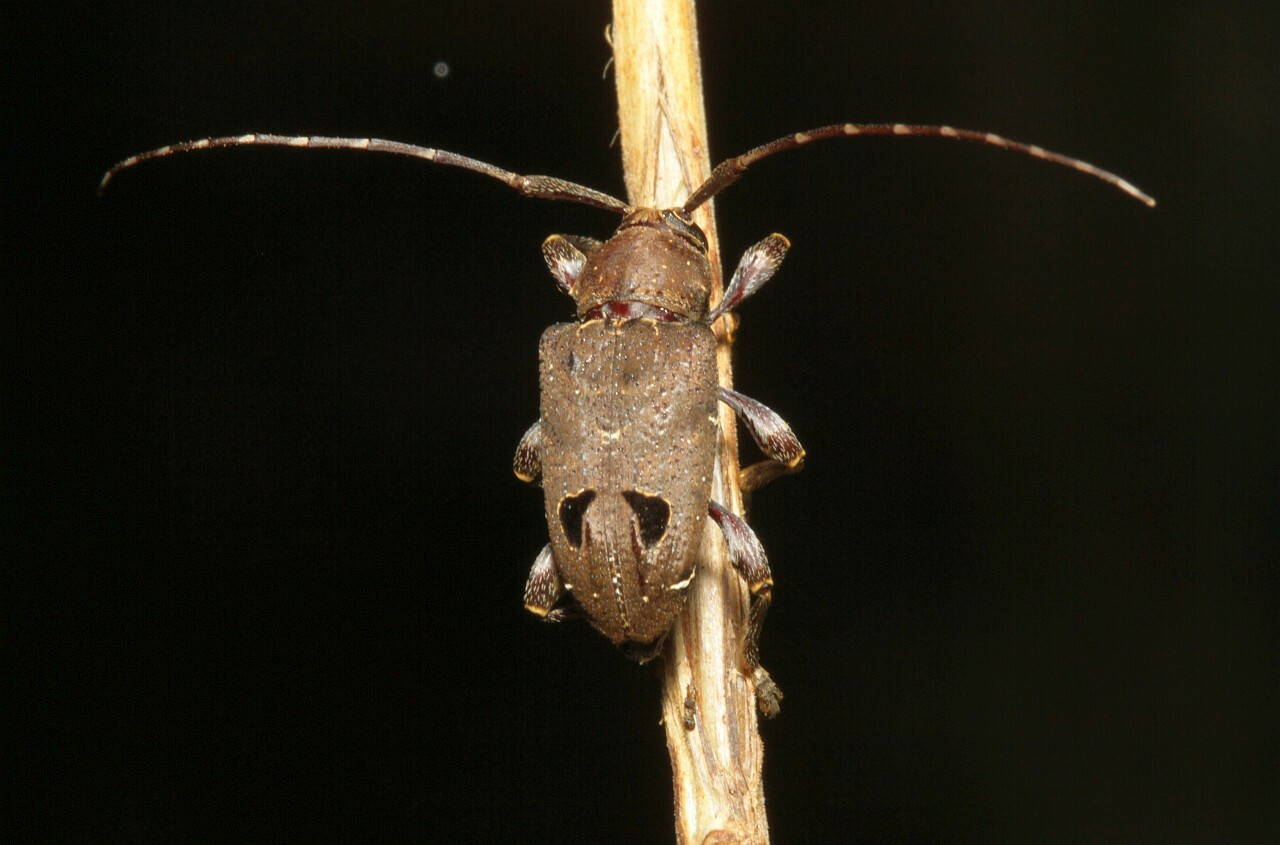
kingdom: Animalia
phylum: Arthropoda
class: Insecta
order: Coleoptera
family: Cerambycidae
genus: Trypanidius
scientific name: Trypanidius notatus
